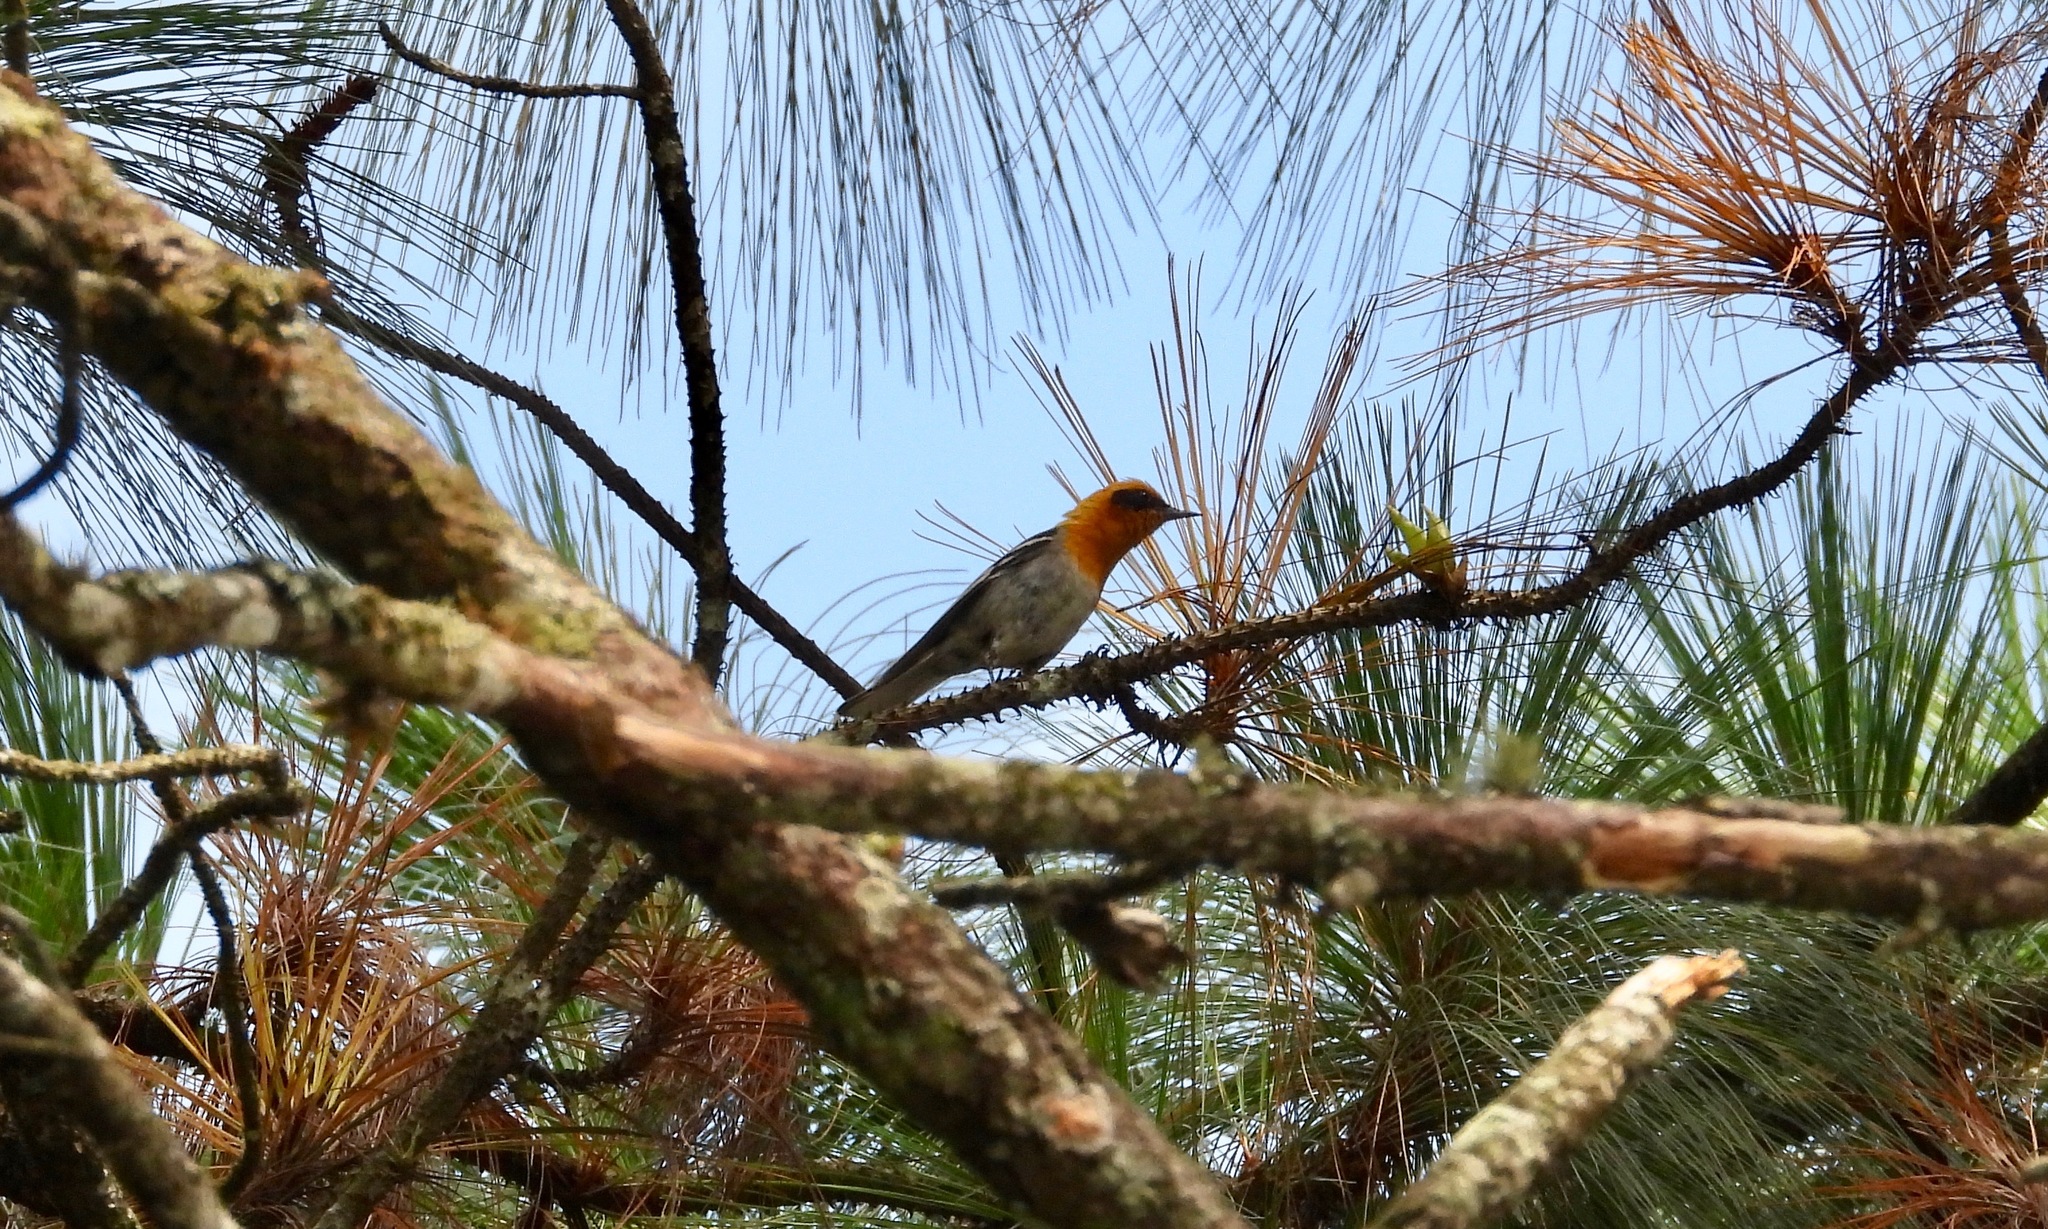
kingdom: Animalia
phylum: Chordata
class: Aves
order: Passeriformes
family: Peucedramidae
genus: Peucedramus
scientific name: Peucedramus taeniatus
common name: Olive warbler
